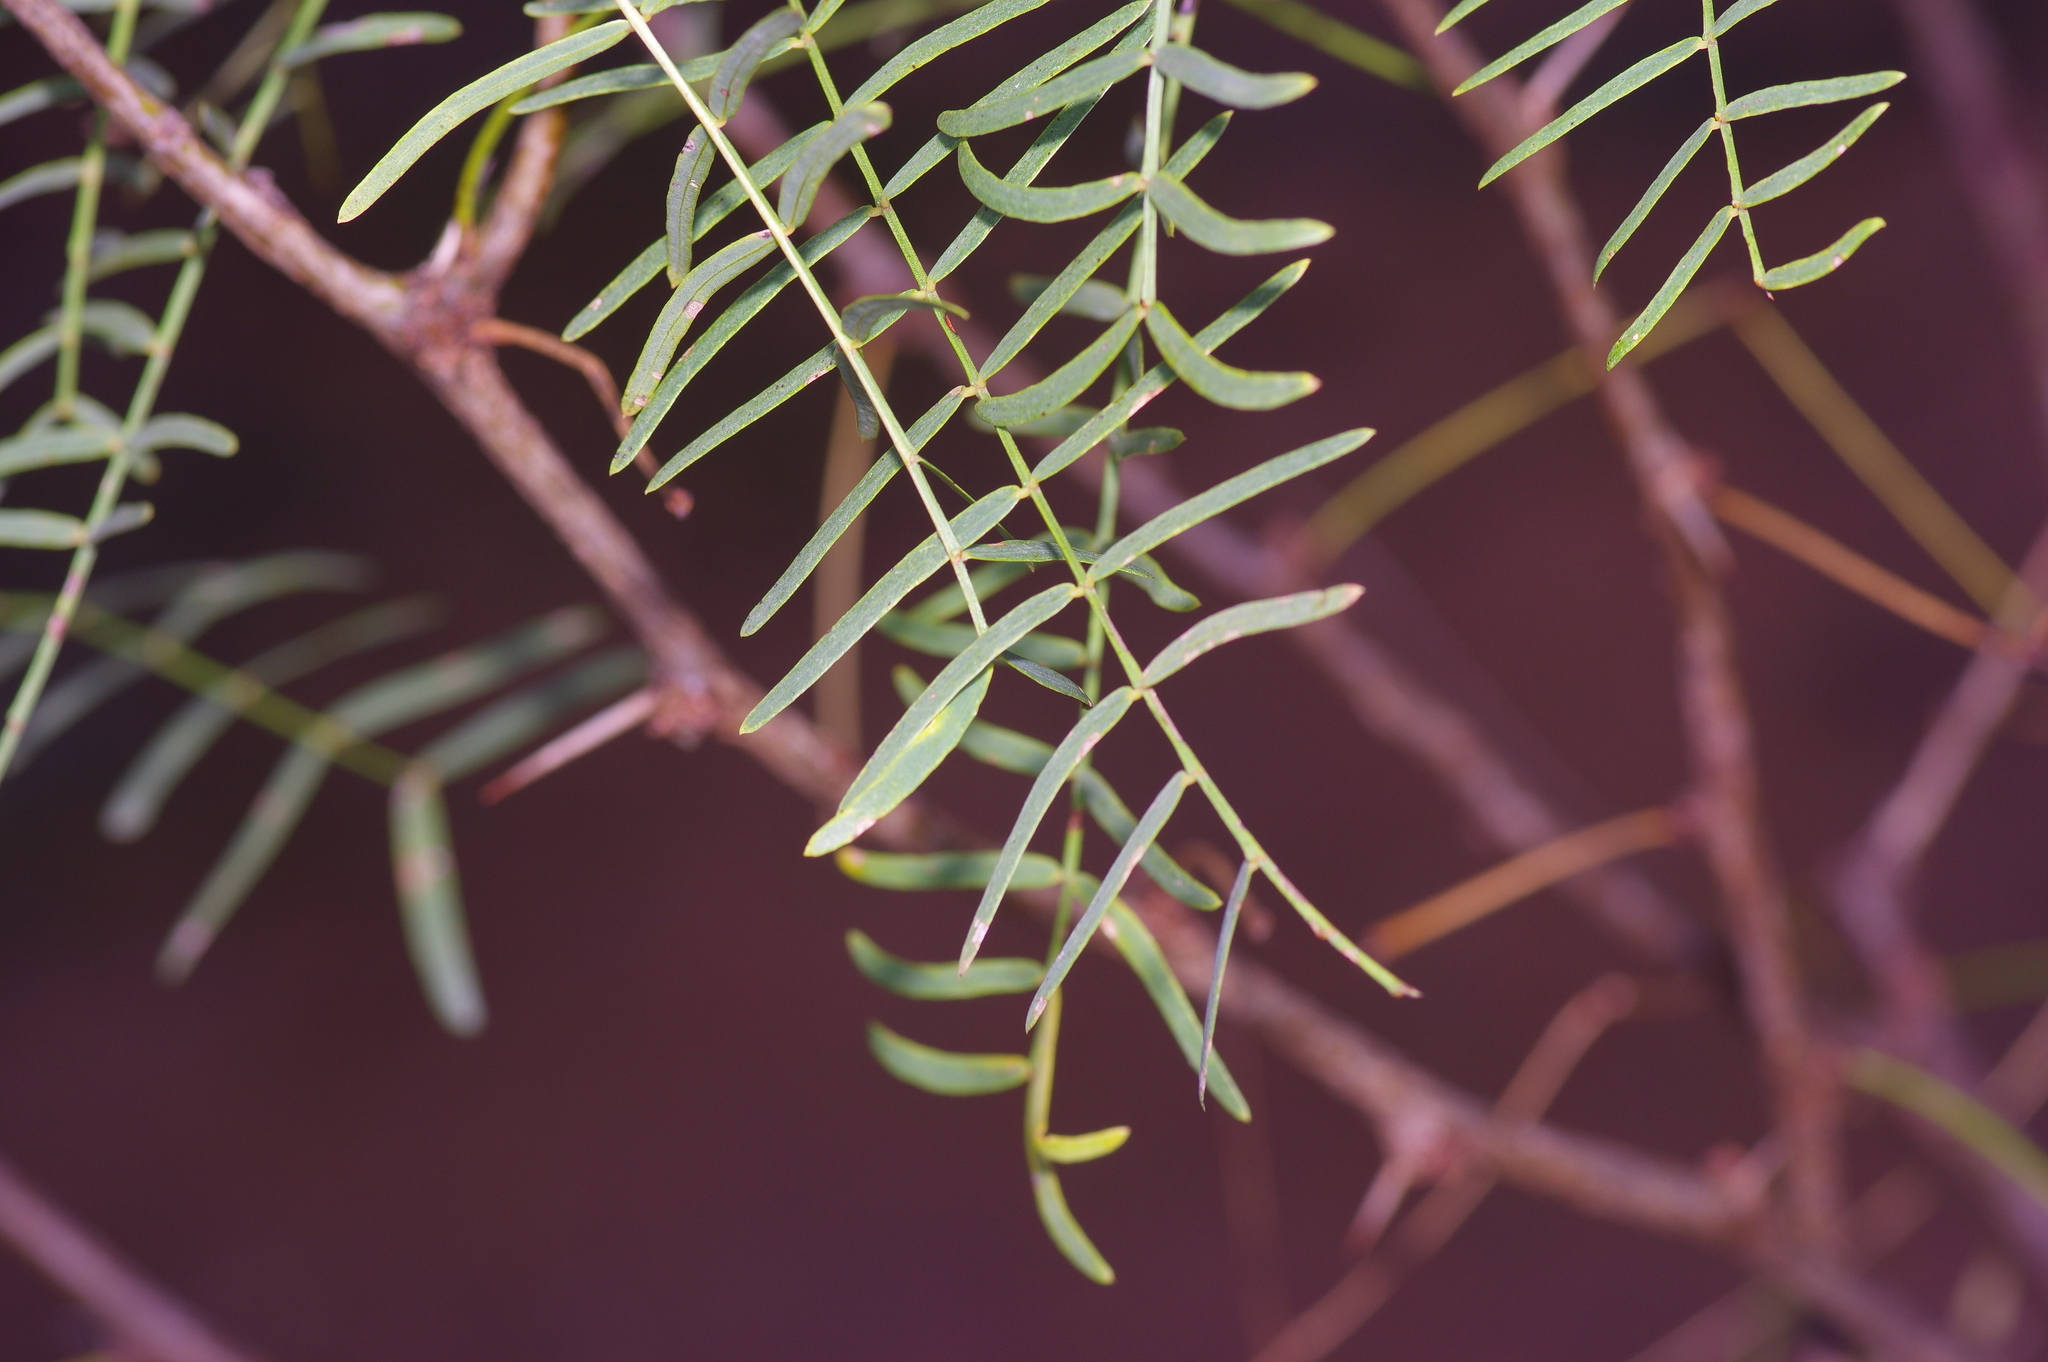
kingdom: Plantae
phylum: Tracheophyta
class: Magnoliopsida
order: Fabales
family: Fabaceae
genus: Prosopis
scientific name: Prosopis glandulosa
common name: Honey mesquite
